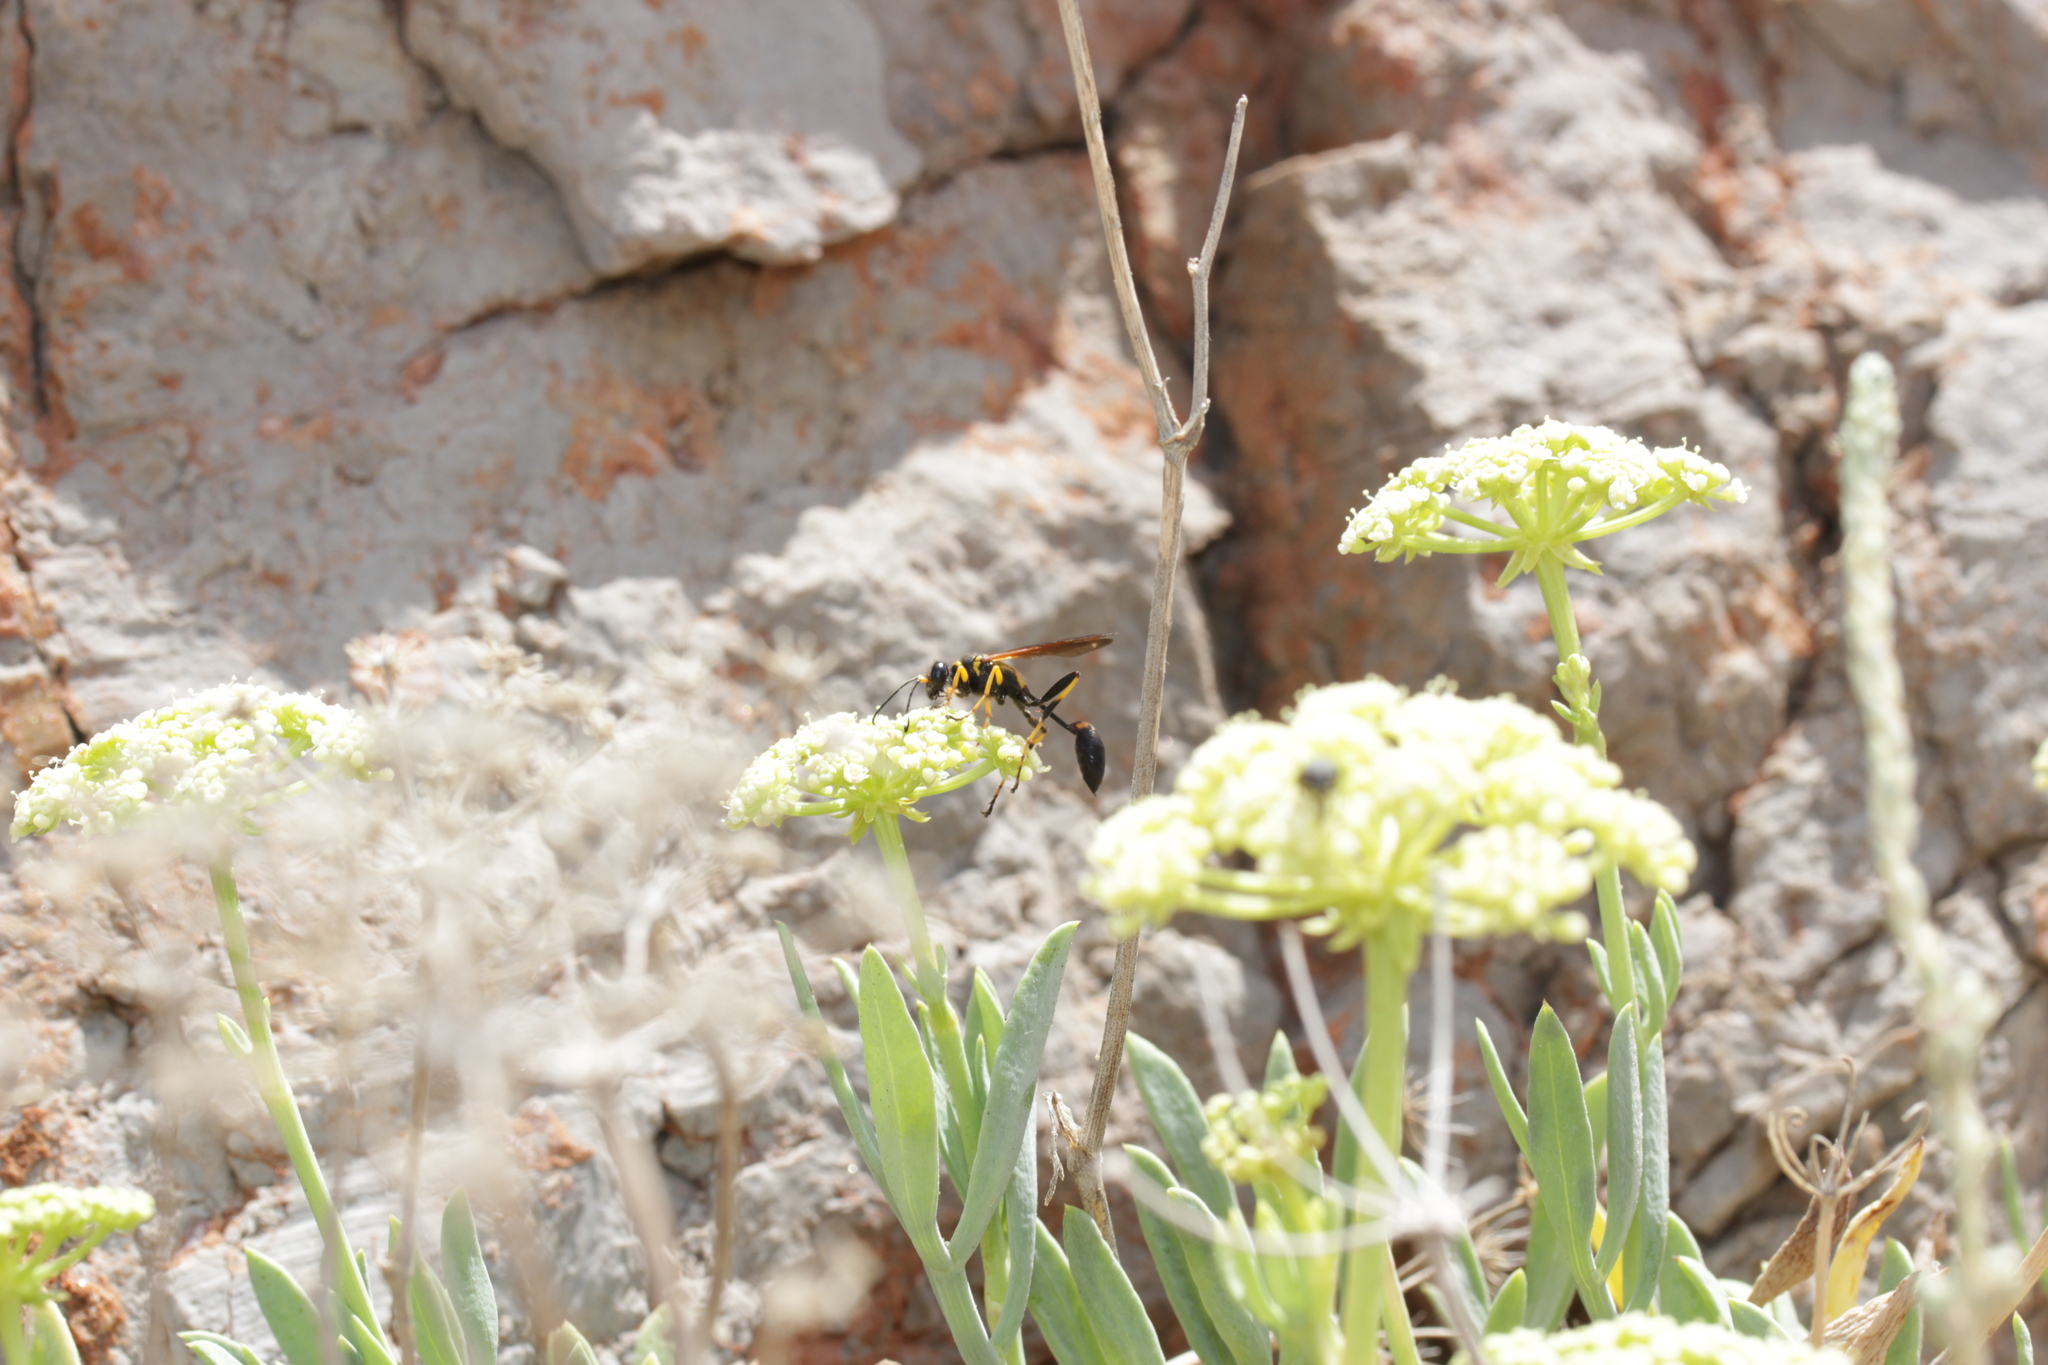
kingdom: Animalia
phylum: Arthropoda
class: Insecta
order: Hymenoptera
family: Sphecidae
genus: Sceliphron
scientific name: Sceliphron caementarium
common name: Mud dauber
